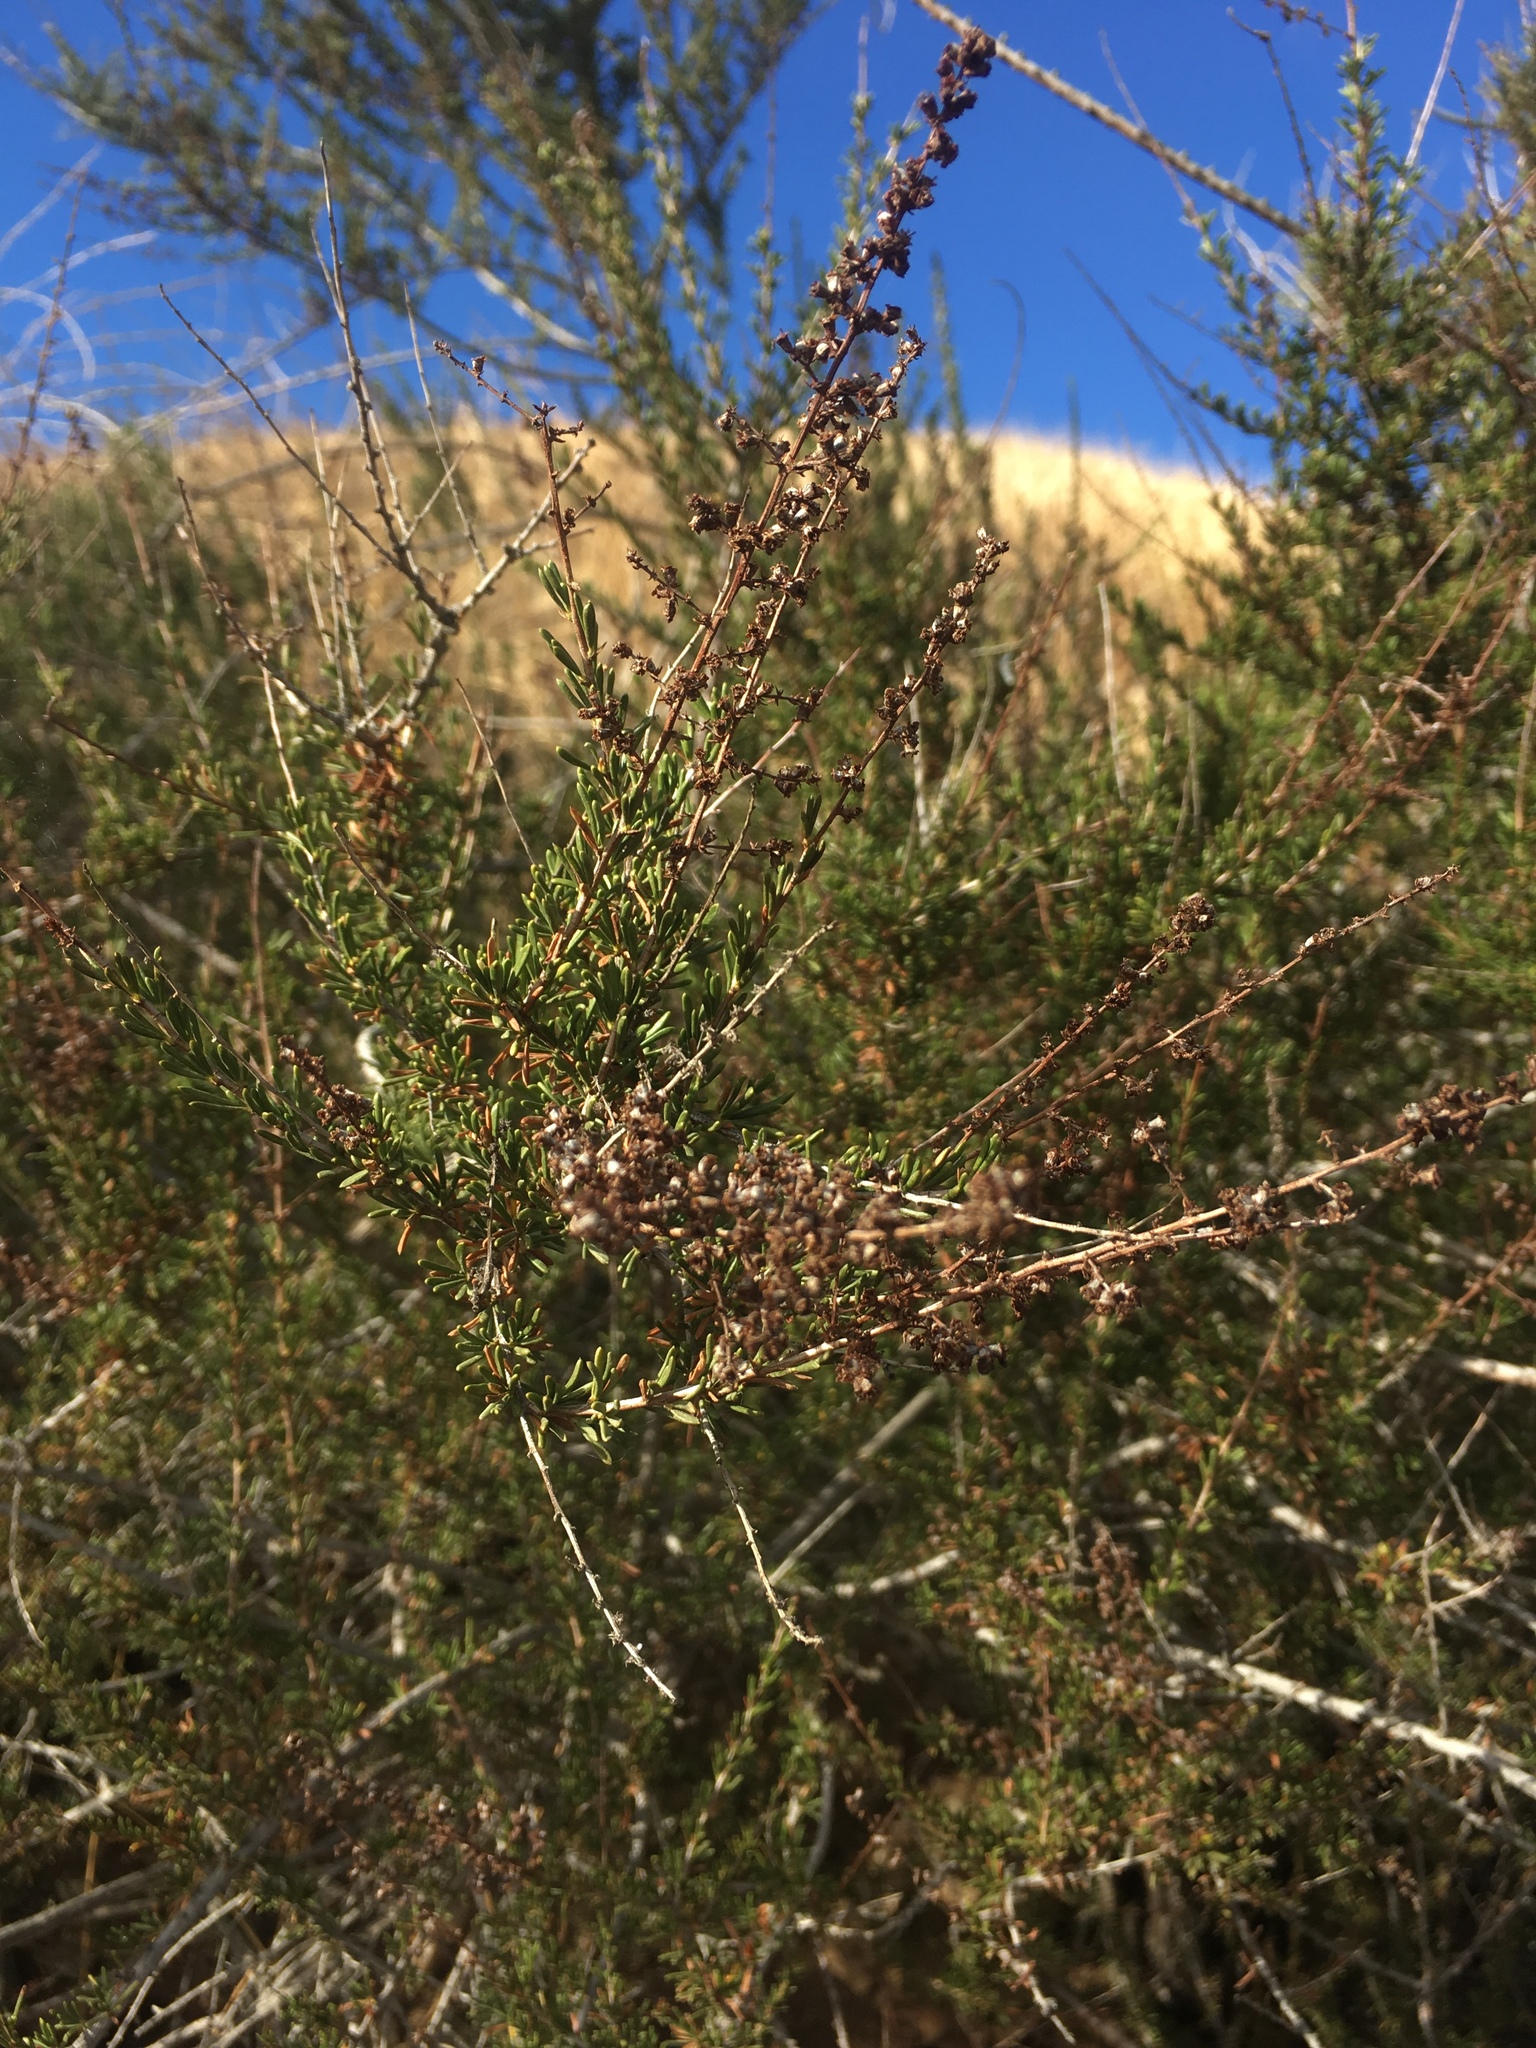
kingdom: Plantae
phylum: Tracheophyta
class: Magnoliopsida
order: Rosales
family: Rosaceae
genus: Adenostoma
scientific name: Adenostoma fasciculatum
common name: Chamise
